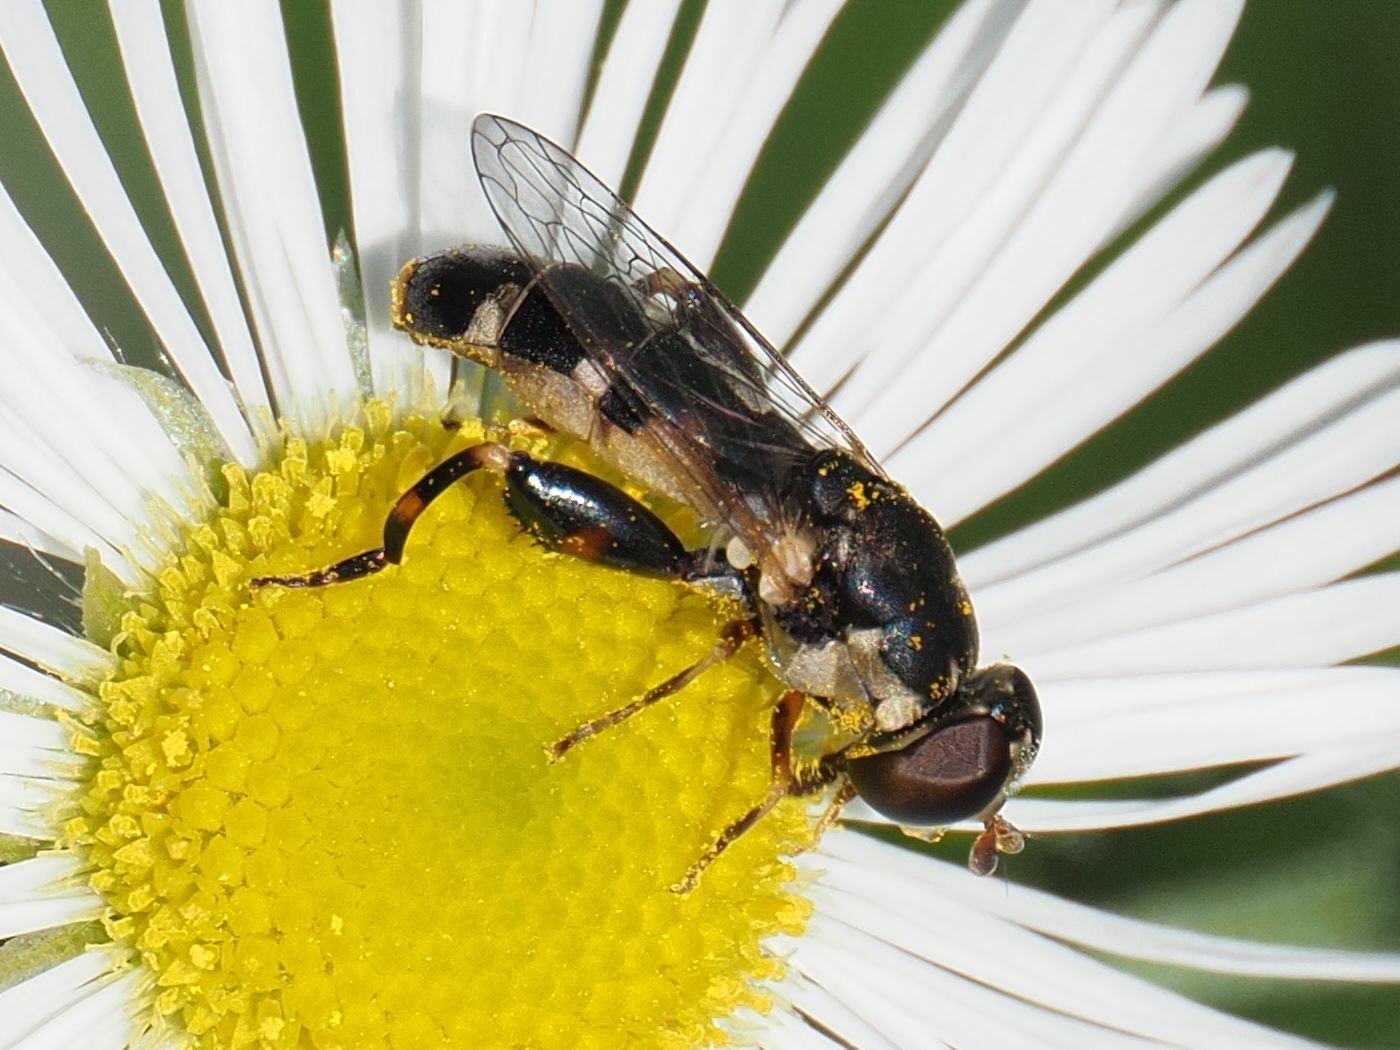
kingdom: Animalia
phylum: Arthropoda
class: Insecta
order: Diptera
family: Syrphidae
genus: Syritta
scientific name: Syritta pipiens
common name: Hover fly
